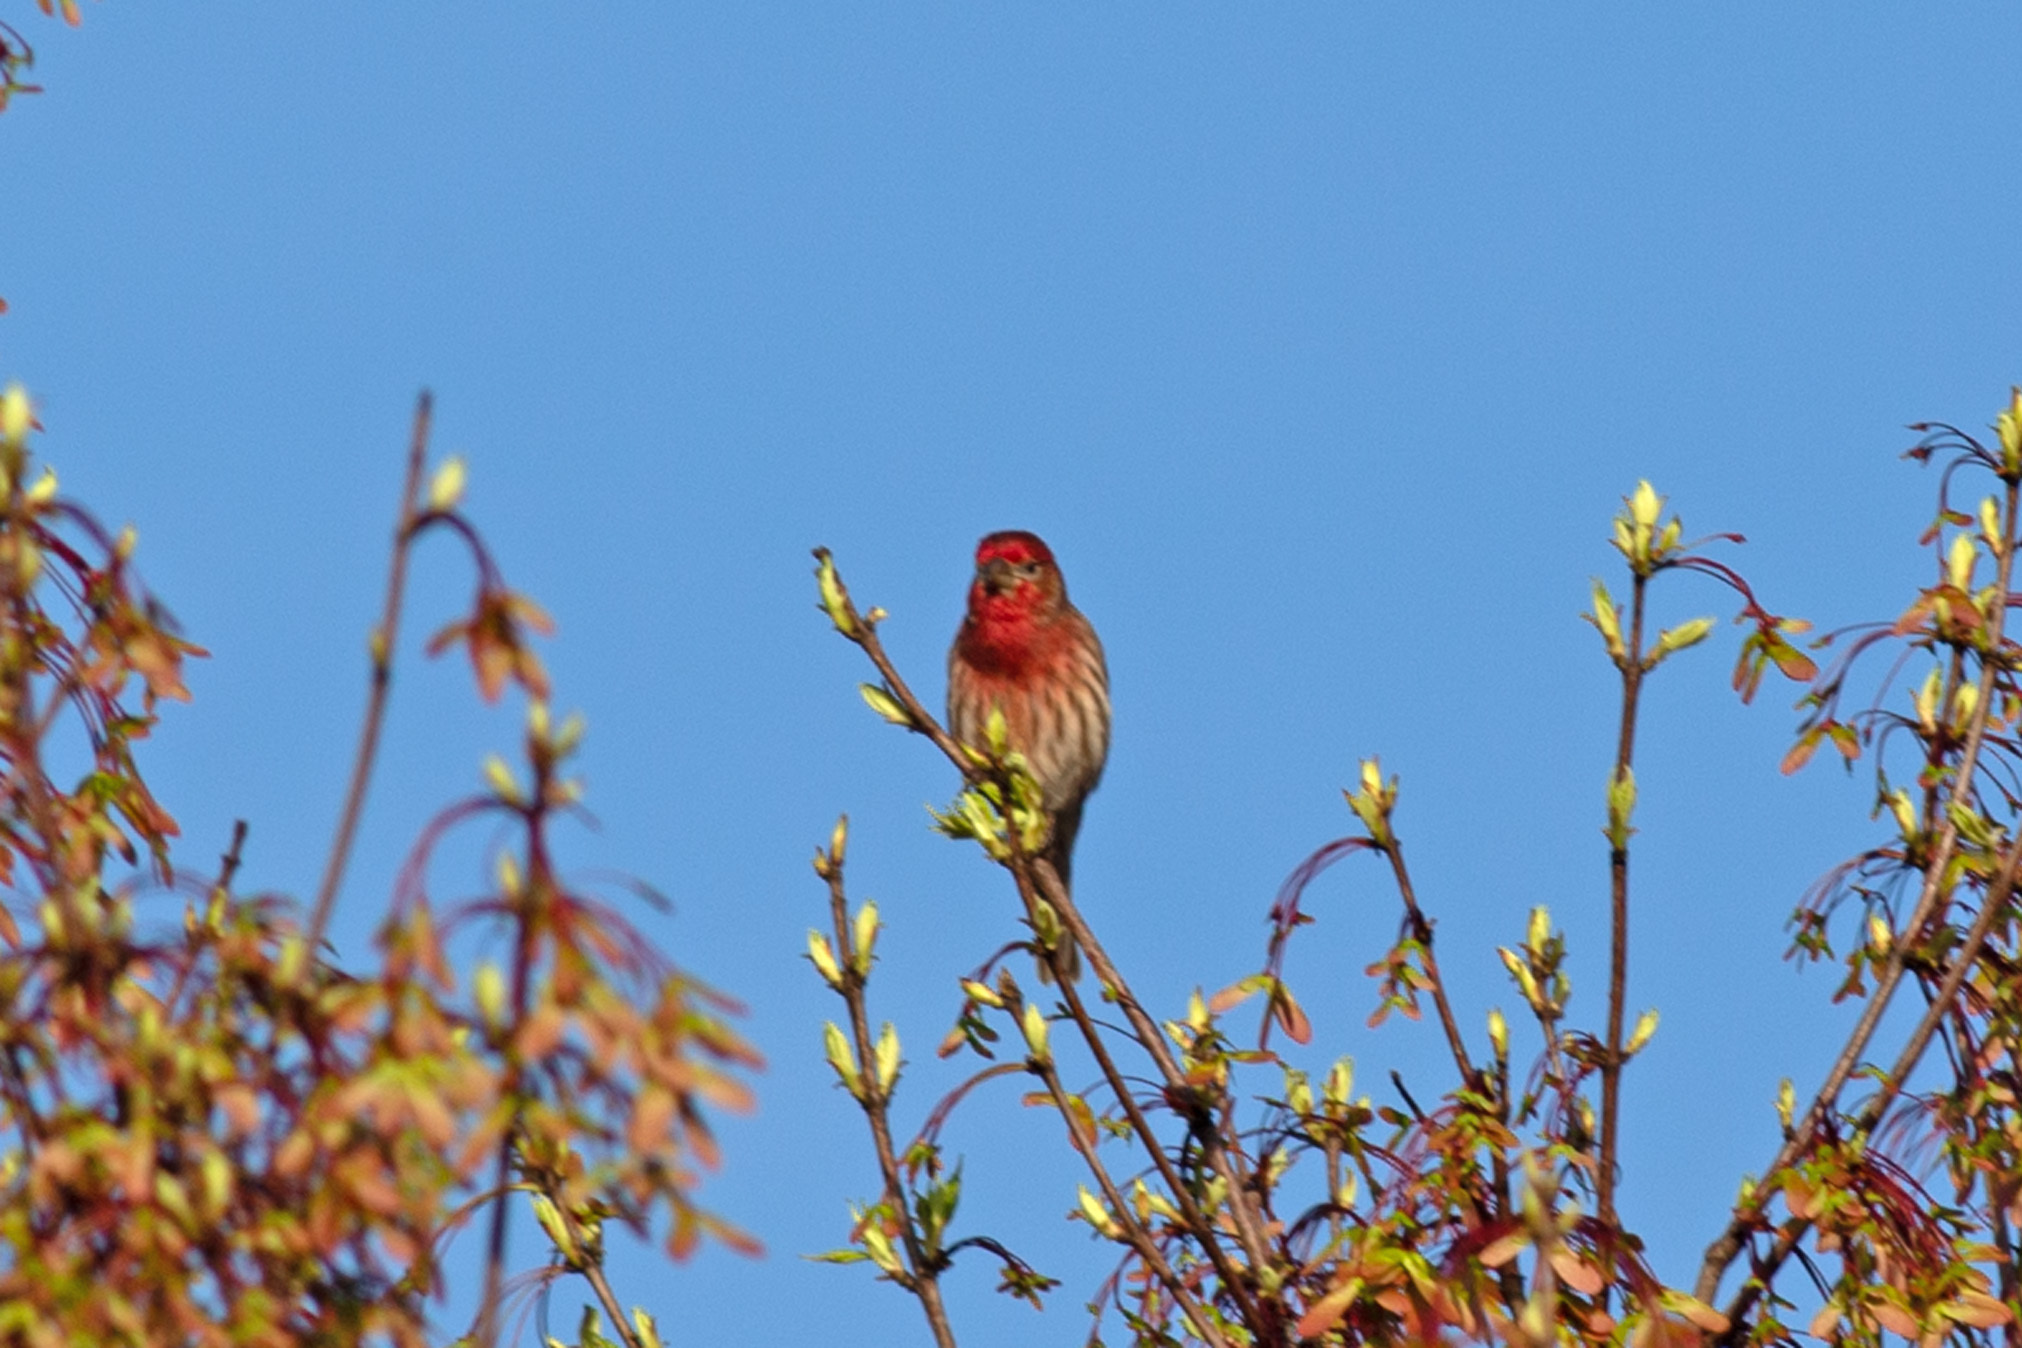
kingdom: Animalia
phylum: Chordata
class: Aves
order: Passeriformes
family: Fringillidae
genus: Haemorhous
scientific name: Haemorhous mexicanus
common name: House finch
